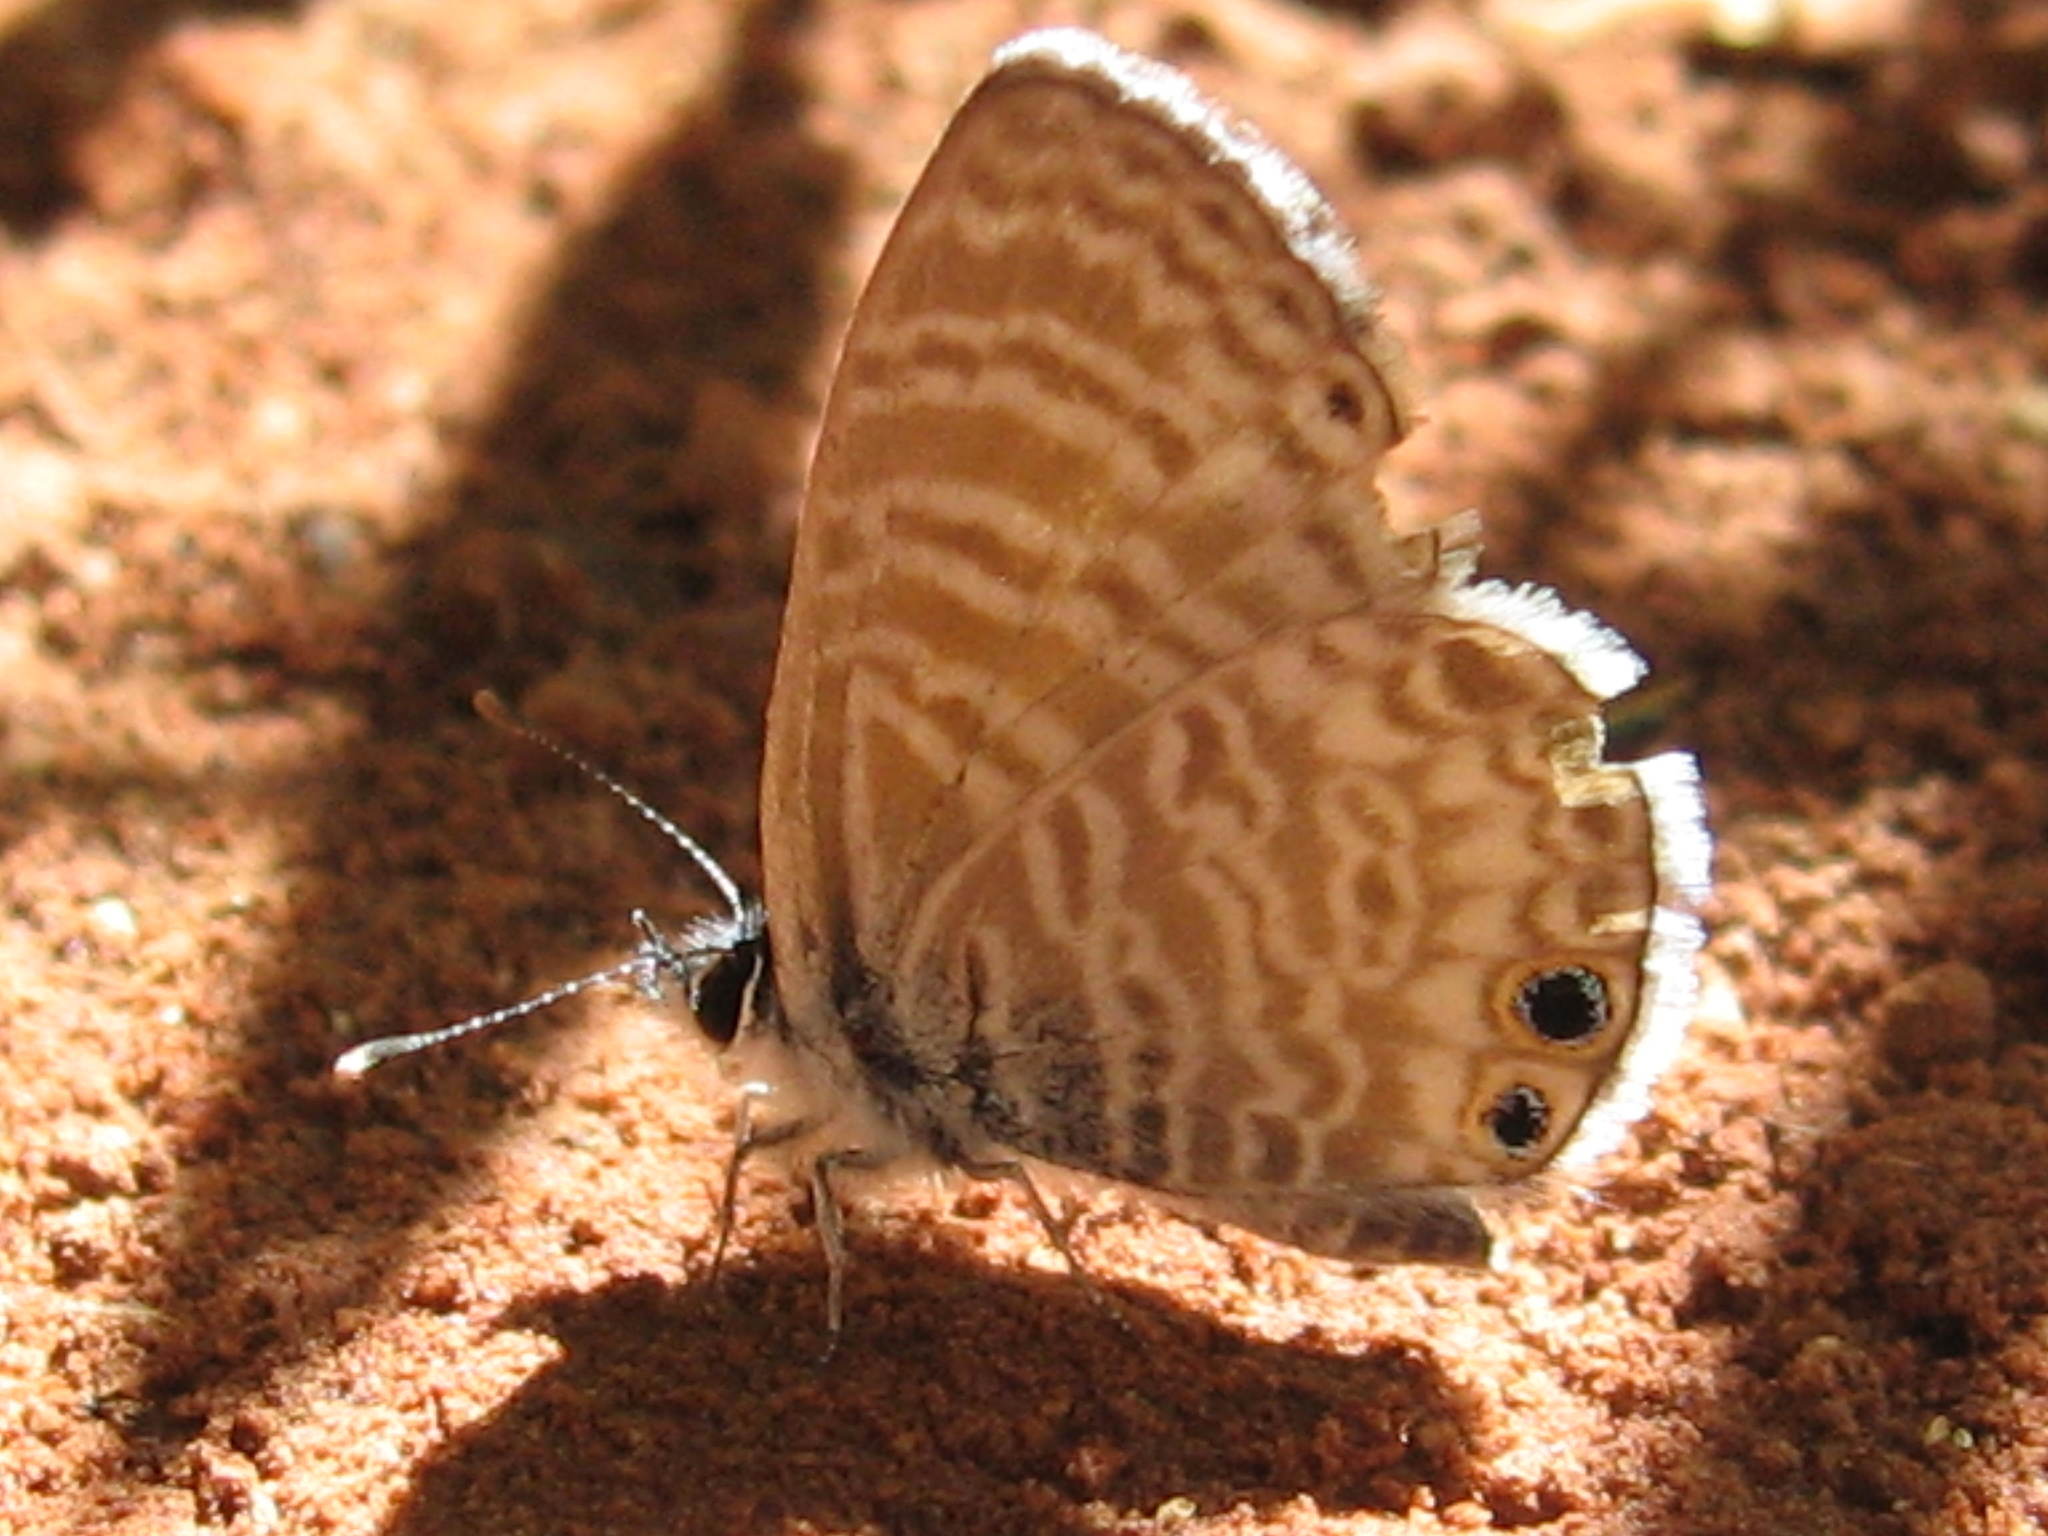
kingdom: Animalia
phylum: Arthropoda
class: Insecta
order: Lepidoptera
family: Lycaenidae
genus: Leptotes
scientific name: Leptotes marina
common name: Marine blue
